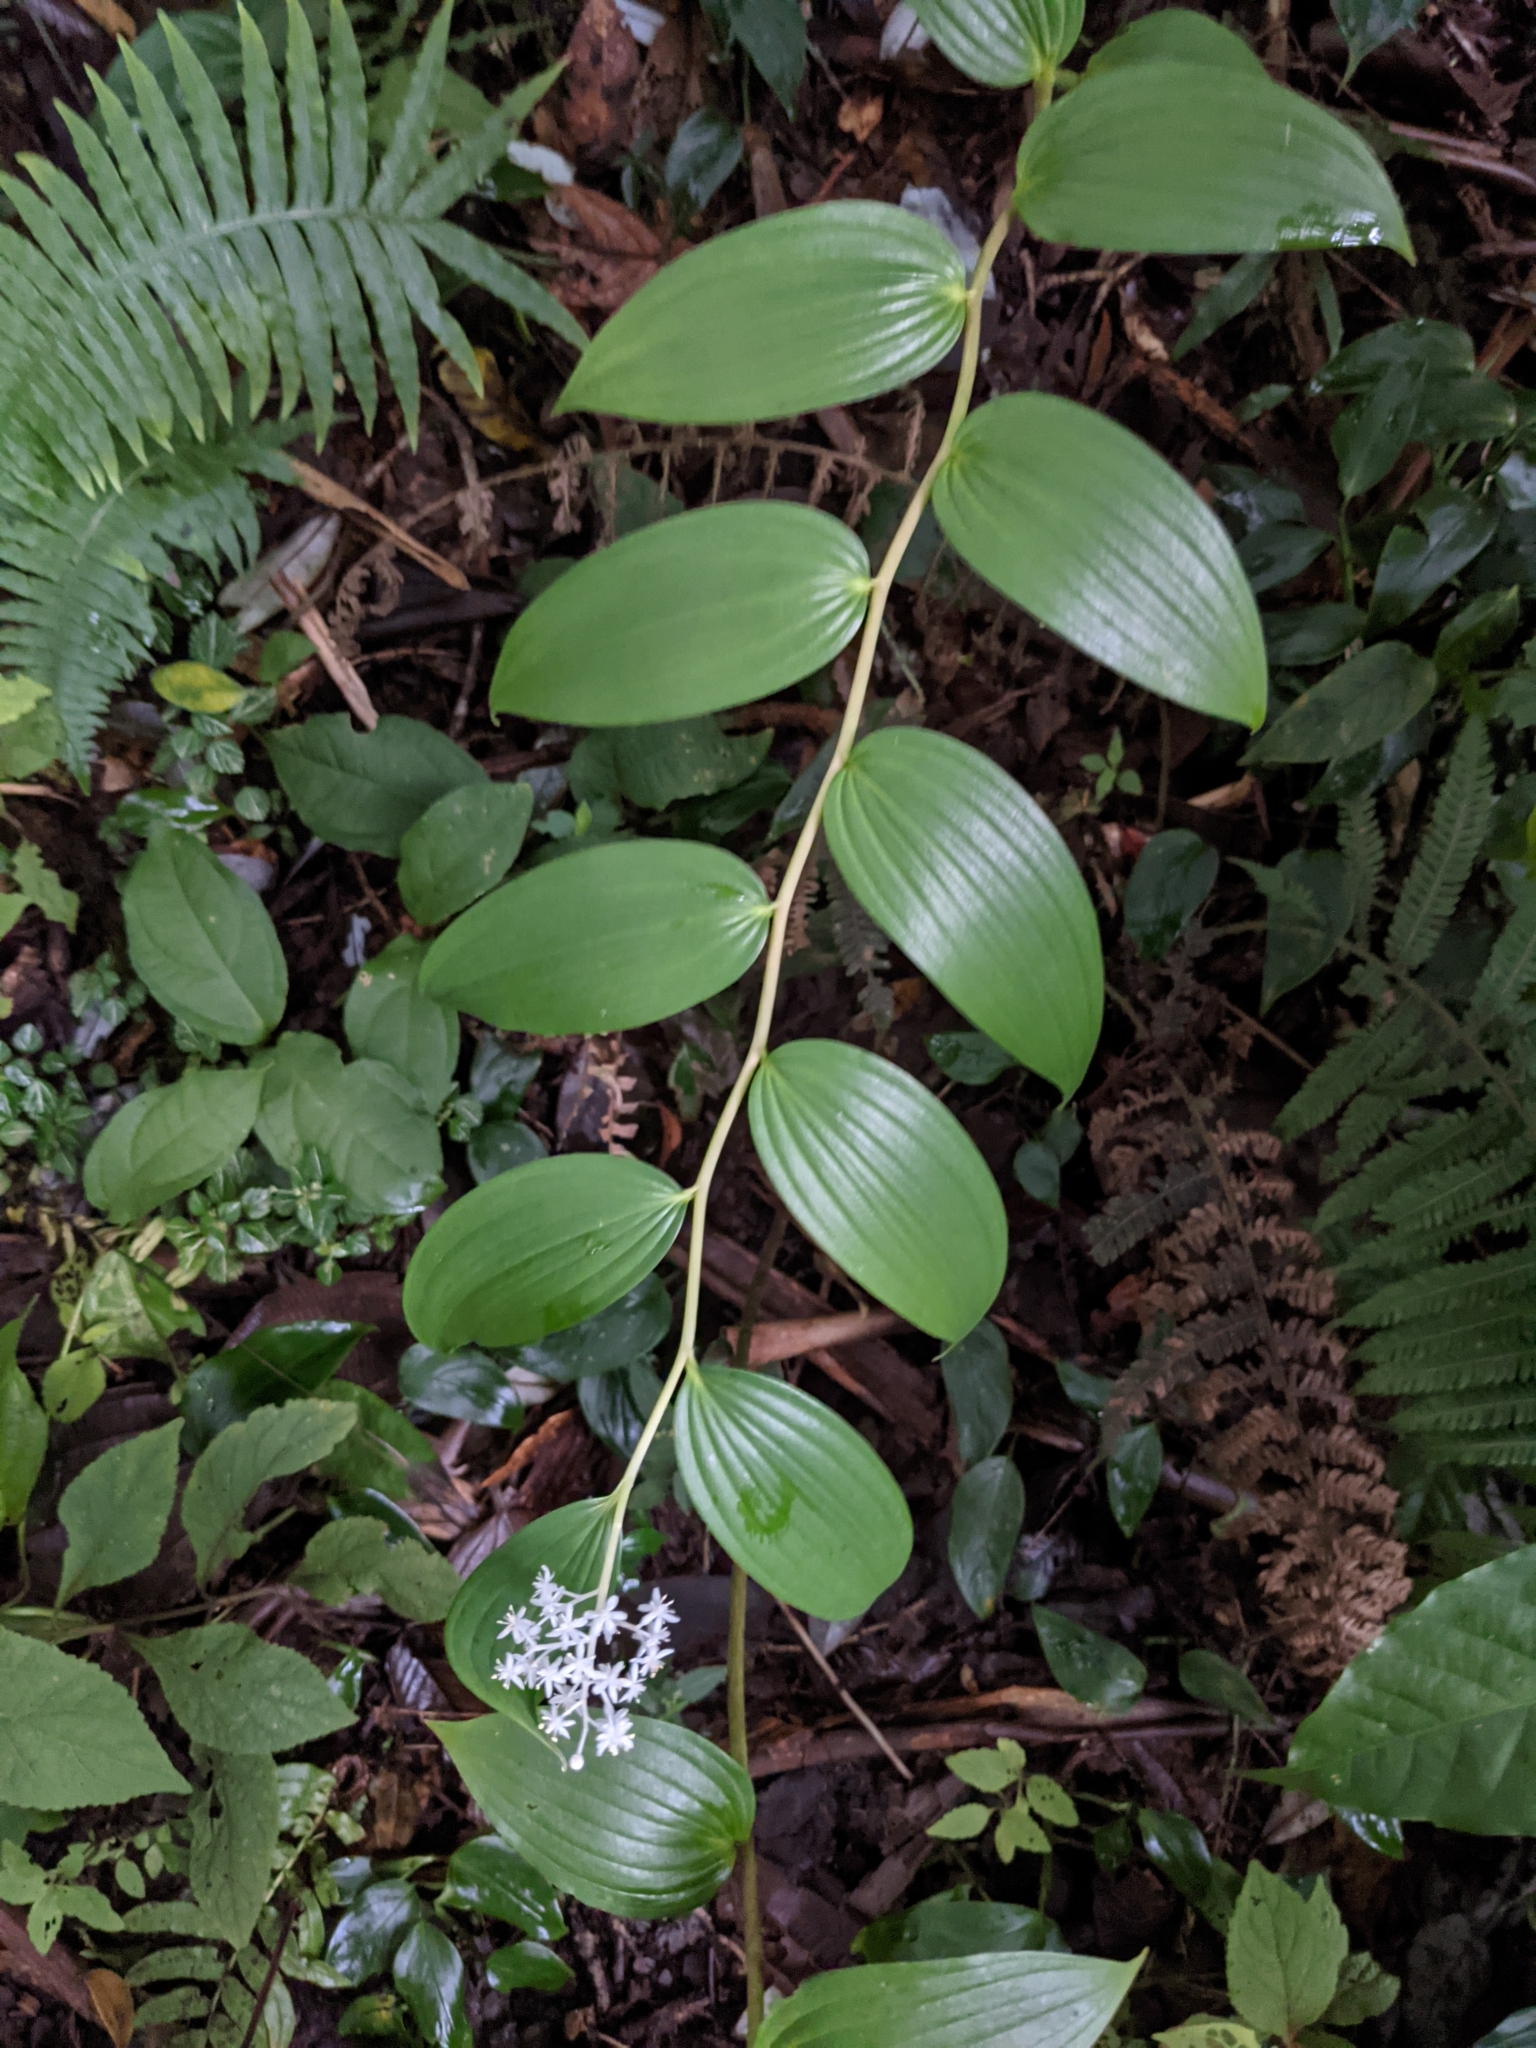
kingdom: Plantae
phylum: Tracheophyta
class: Liliopsida
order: Asparagales
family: Asparagaceae
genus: Maianthemum
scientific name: Maianthemum paniculatum
